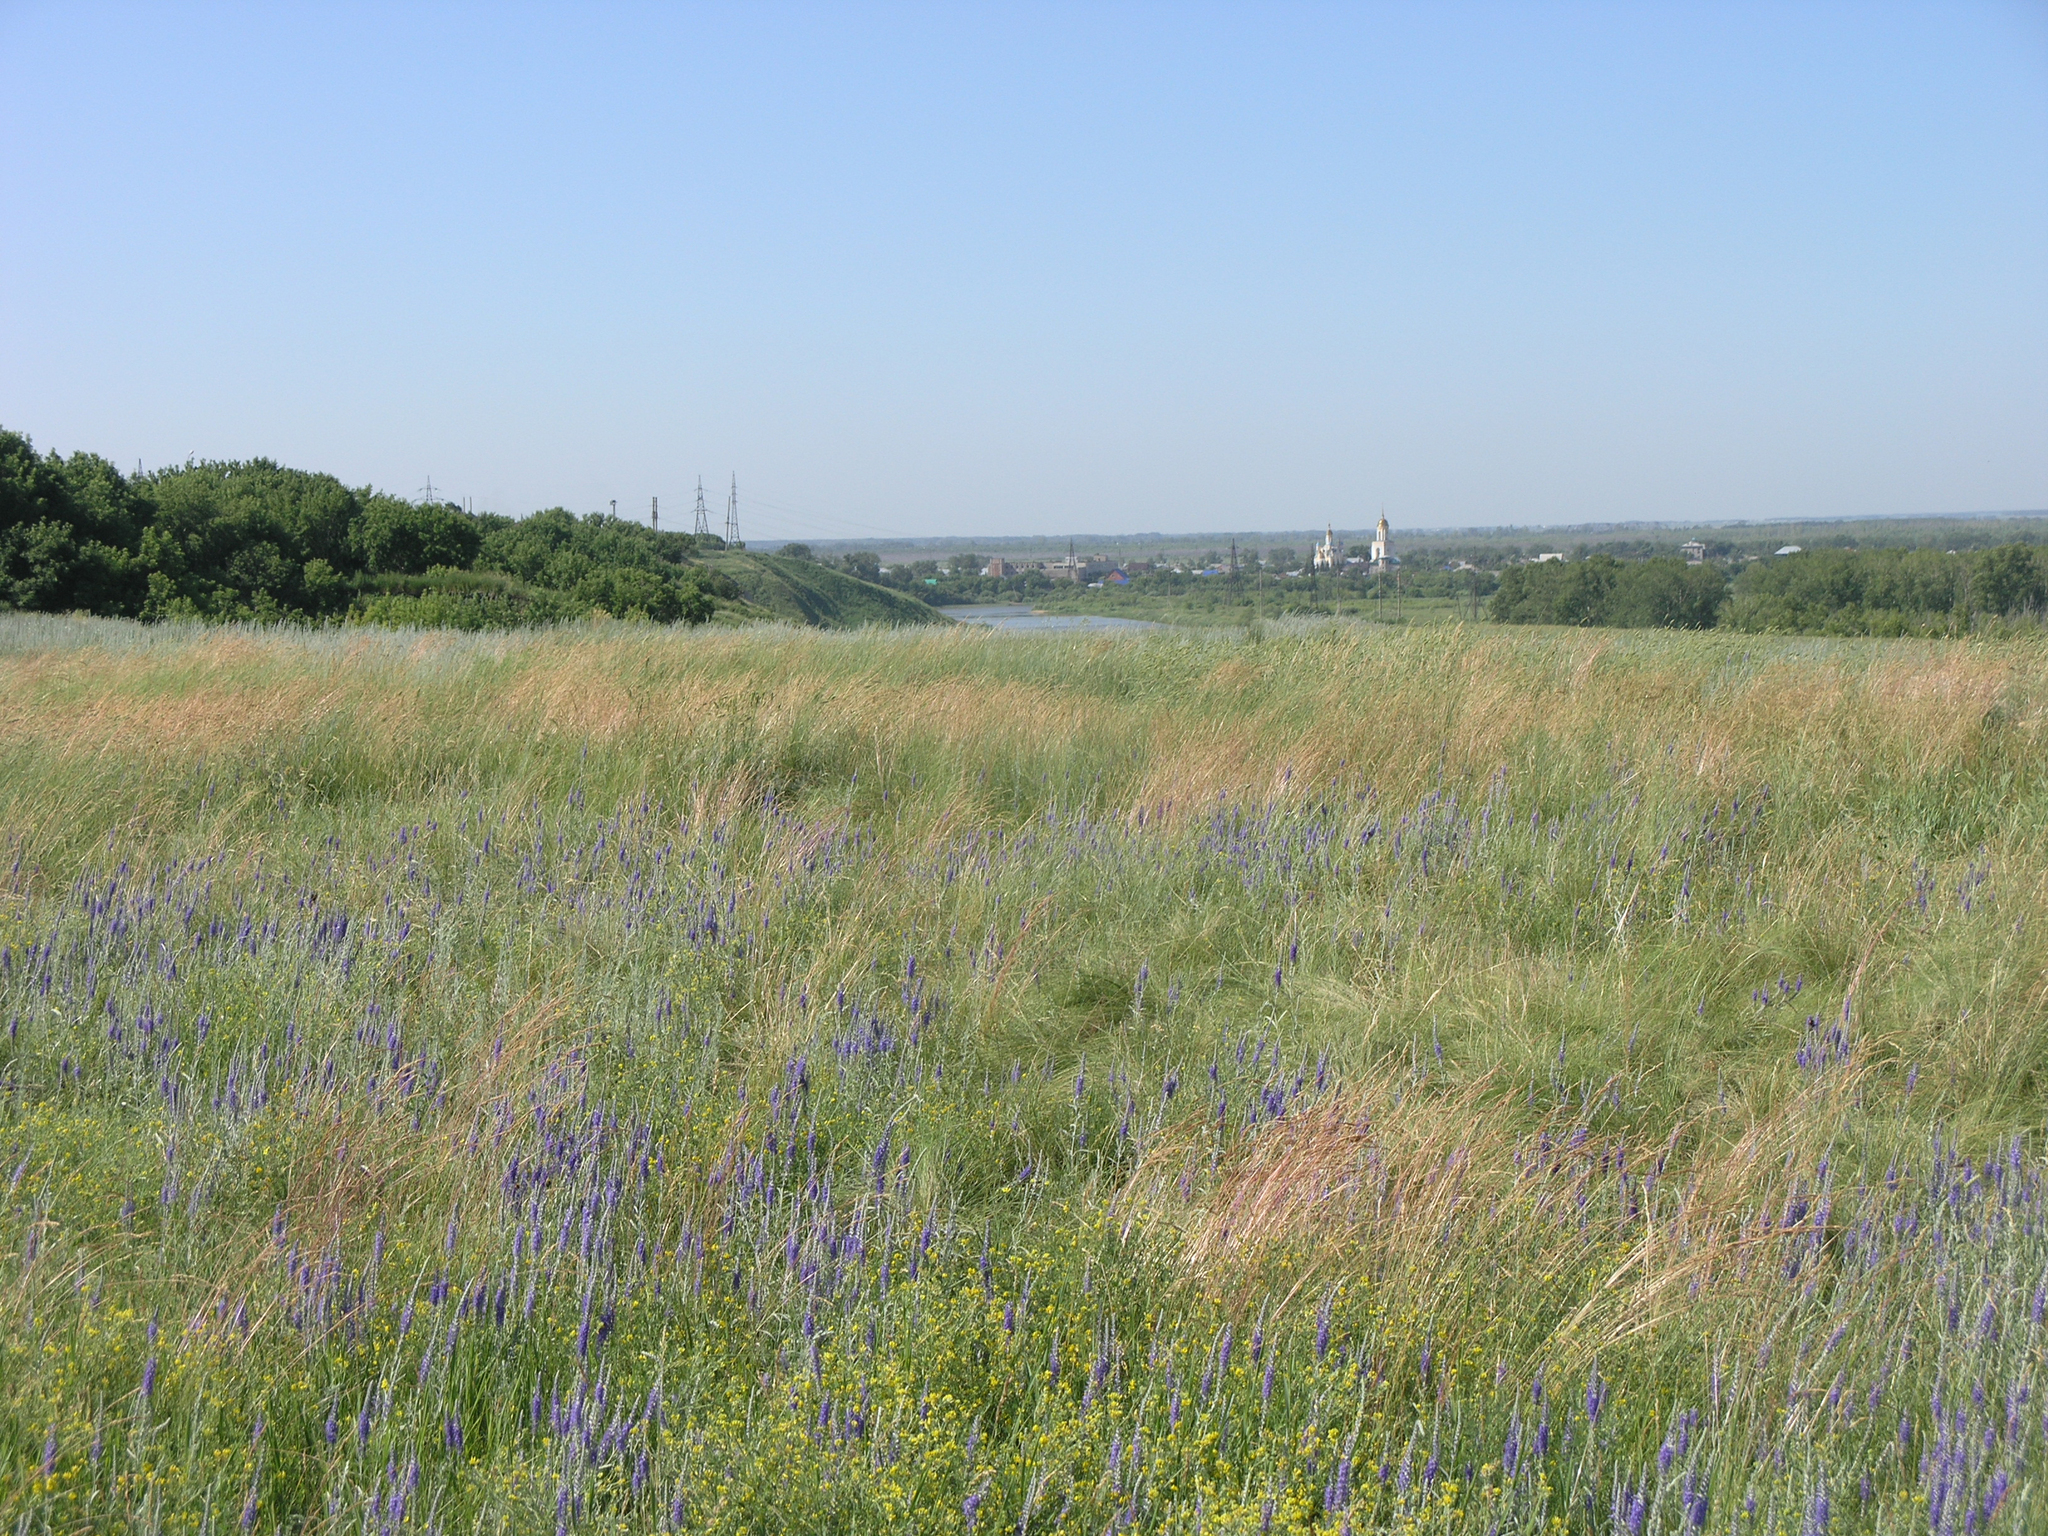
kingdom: Plantae
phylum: Tracheophyta
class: Magnoliopsida
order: Lamiales
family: Plantaginaceae
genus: Veronica
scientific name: Veronica incana
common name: Silver speedwell
